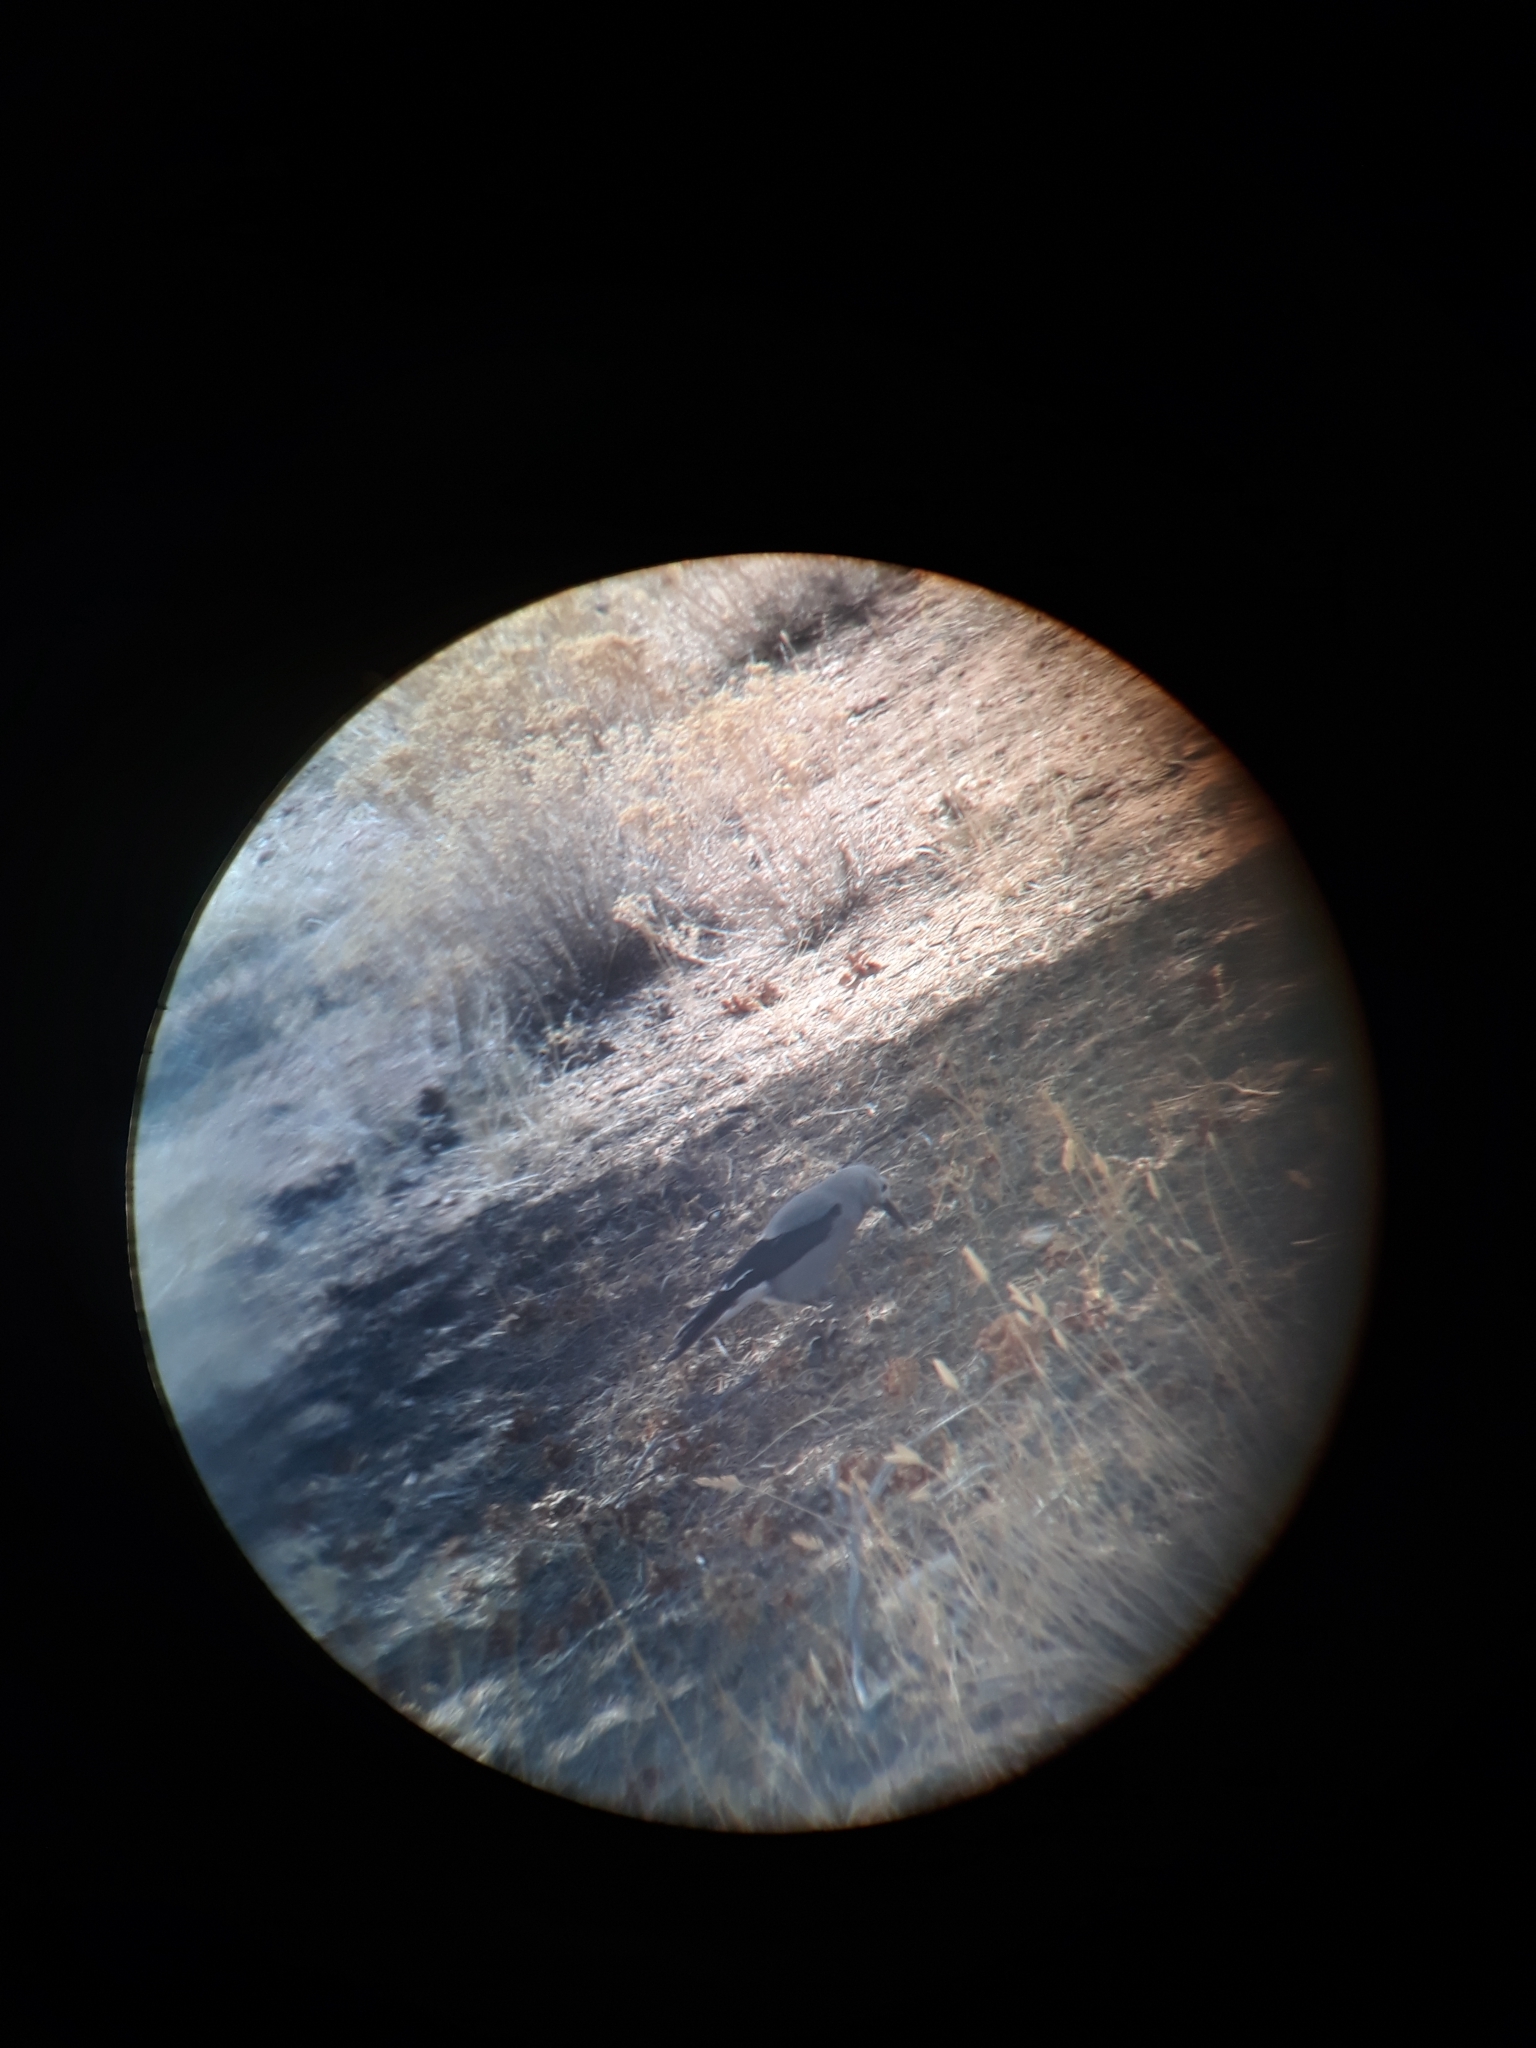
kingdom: Animalia
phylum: Chordata
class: Aves
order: Passeriformes
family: Corvidae
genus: Nucifraga
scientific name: Nucifraga columbiana
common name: Clark's nutcracker
